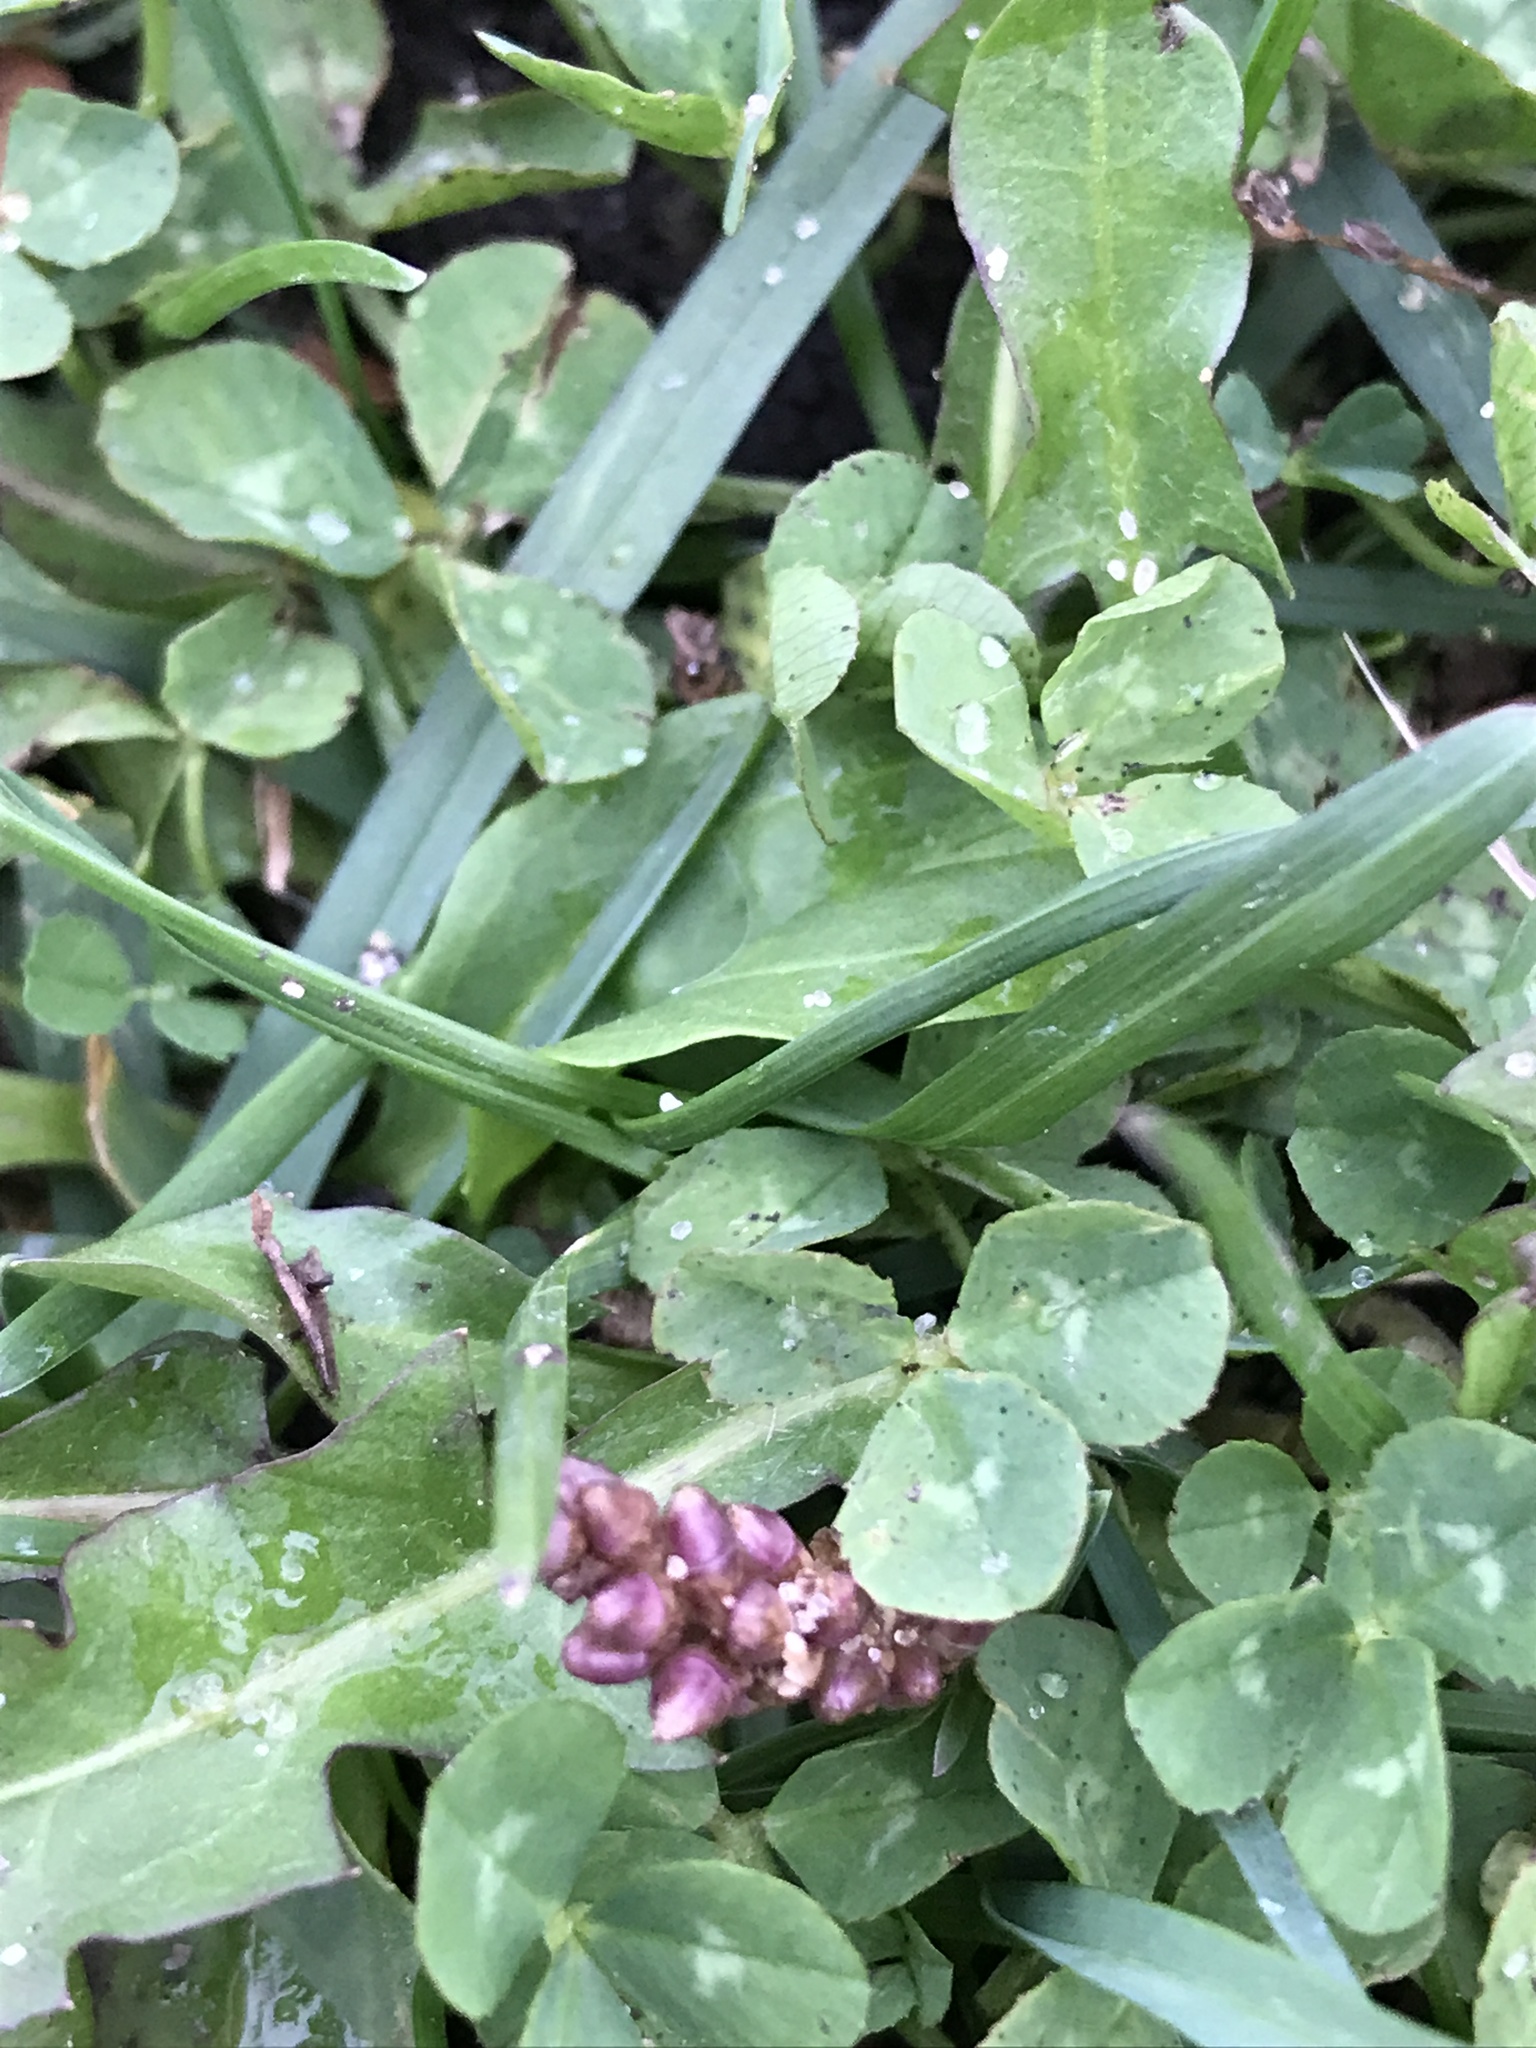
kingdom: Plantae
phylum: Tracheophyta
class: Magnoliopsida
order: Fabales
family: Fabaceae
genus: Trifolium
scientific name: Trifolium repens
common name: White clover
